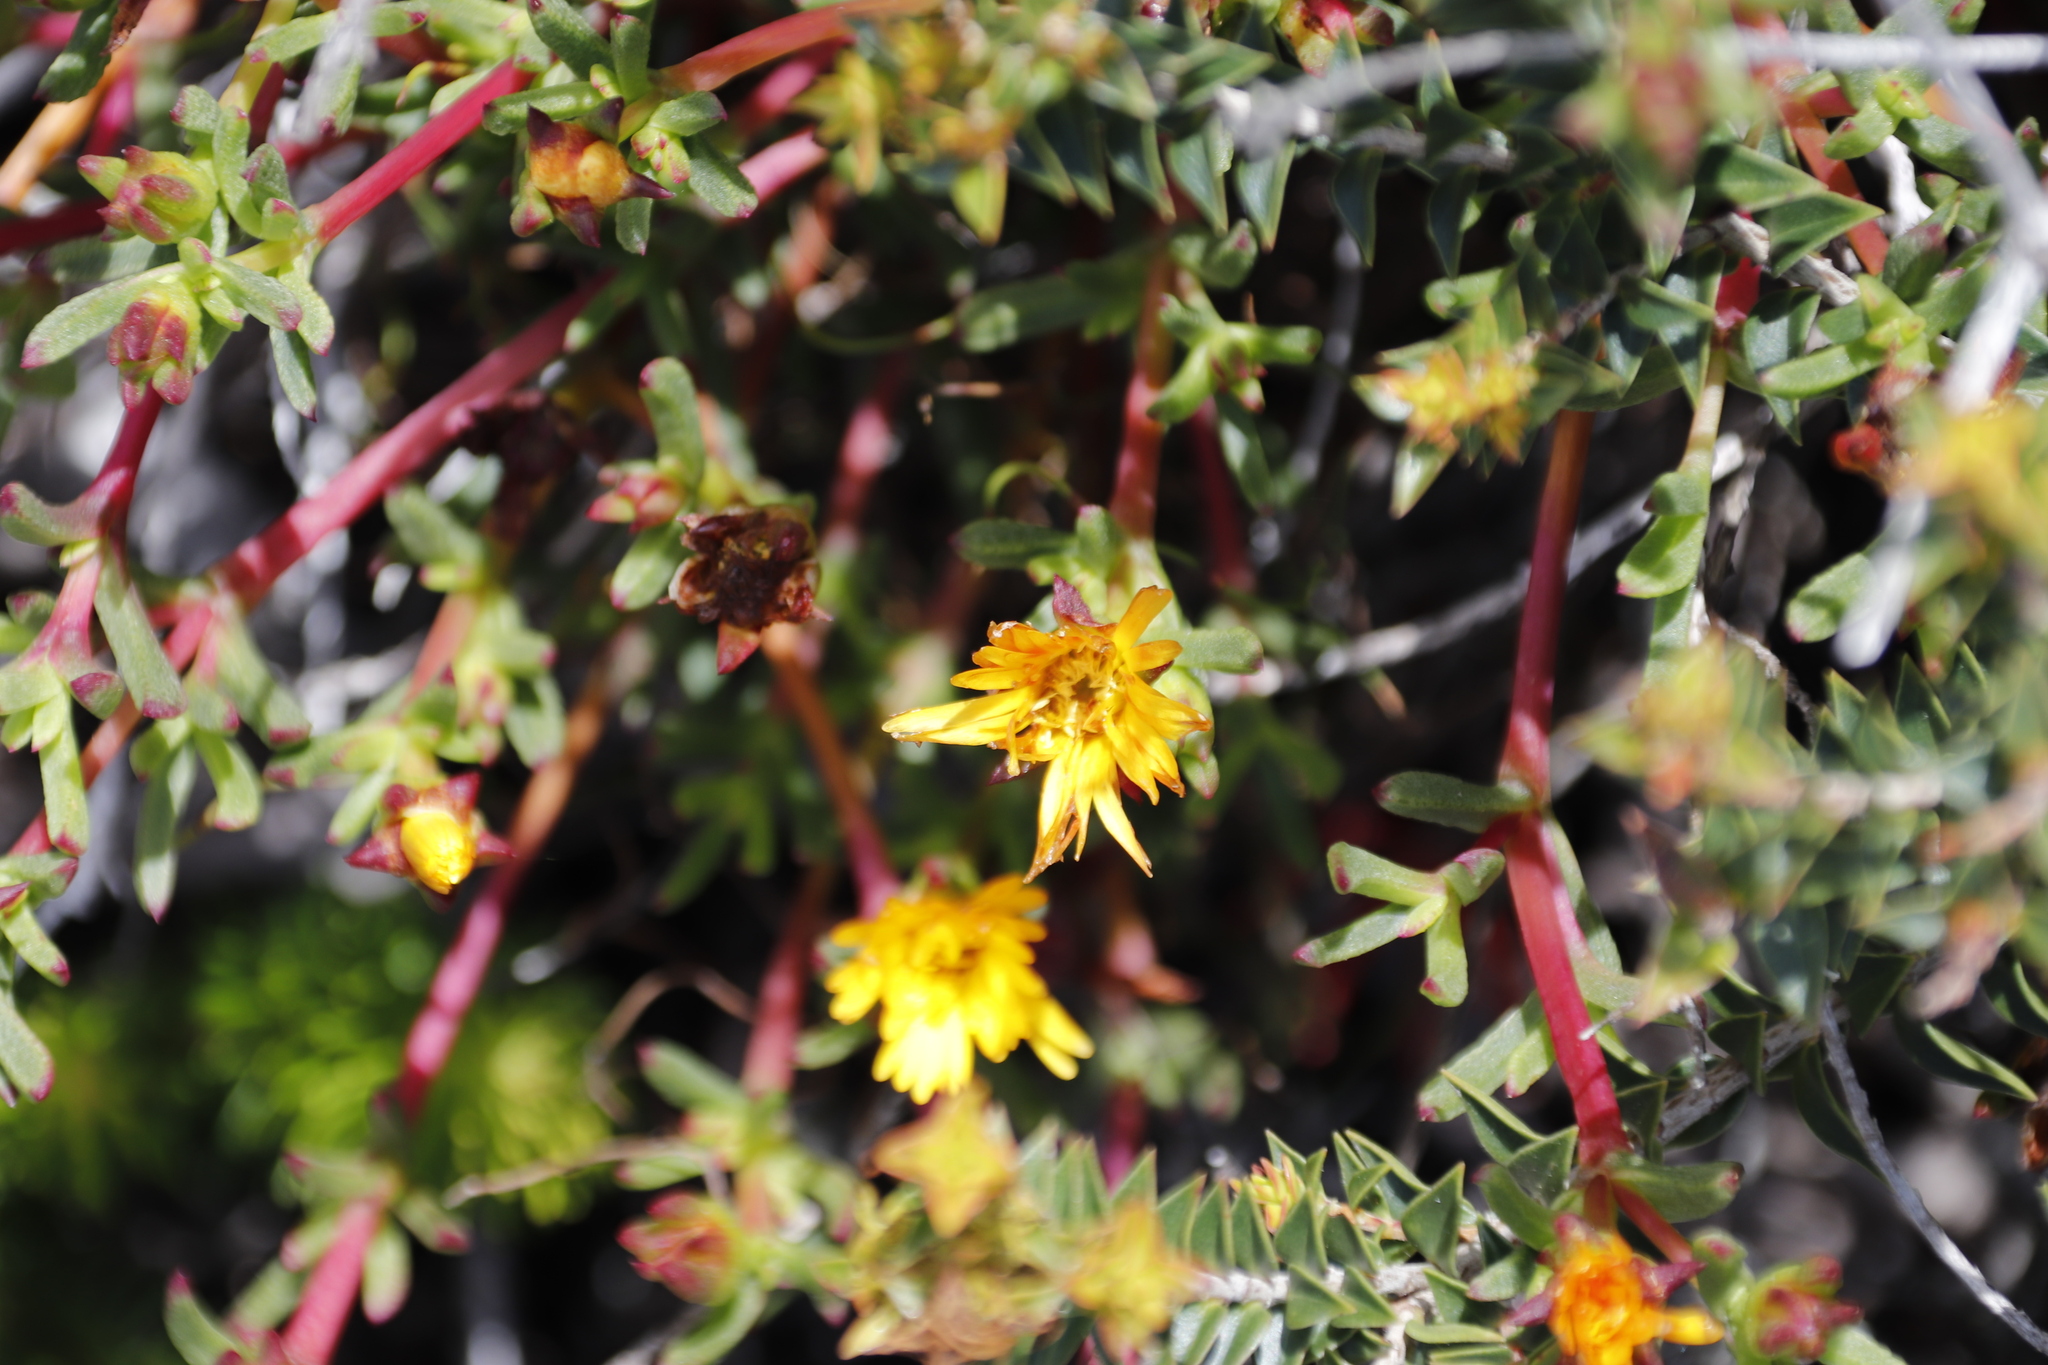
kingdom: Plantae
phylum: Tracheophyta
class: Magnoliopsida
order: Caryophyllales
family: Aizoaceae
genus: Lampranthus
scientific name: Lampranthus promontorii
